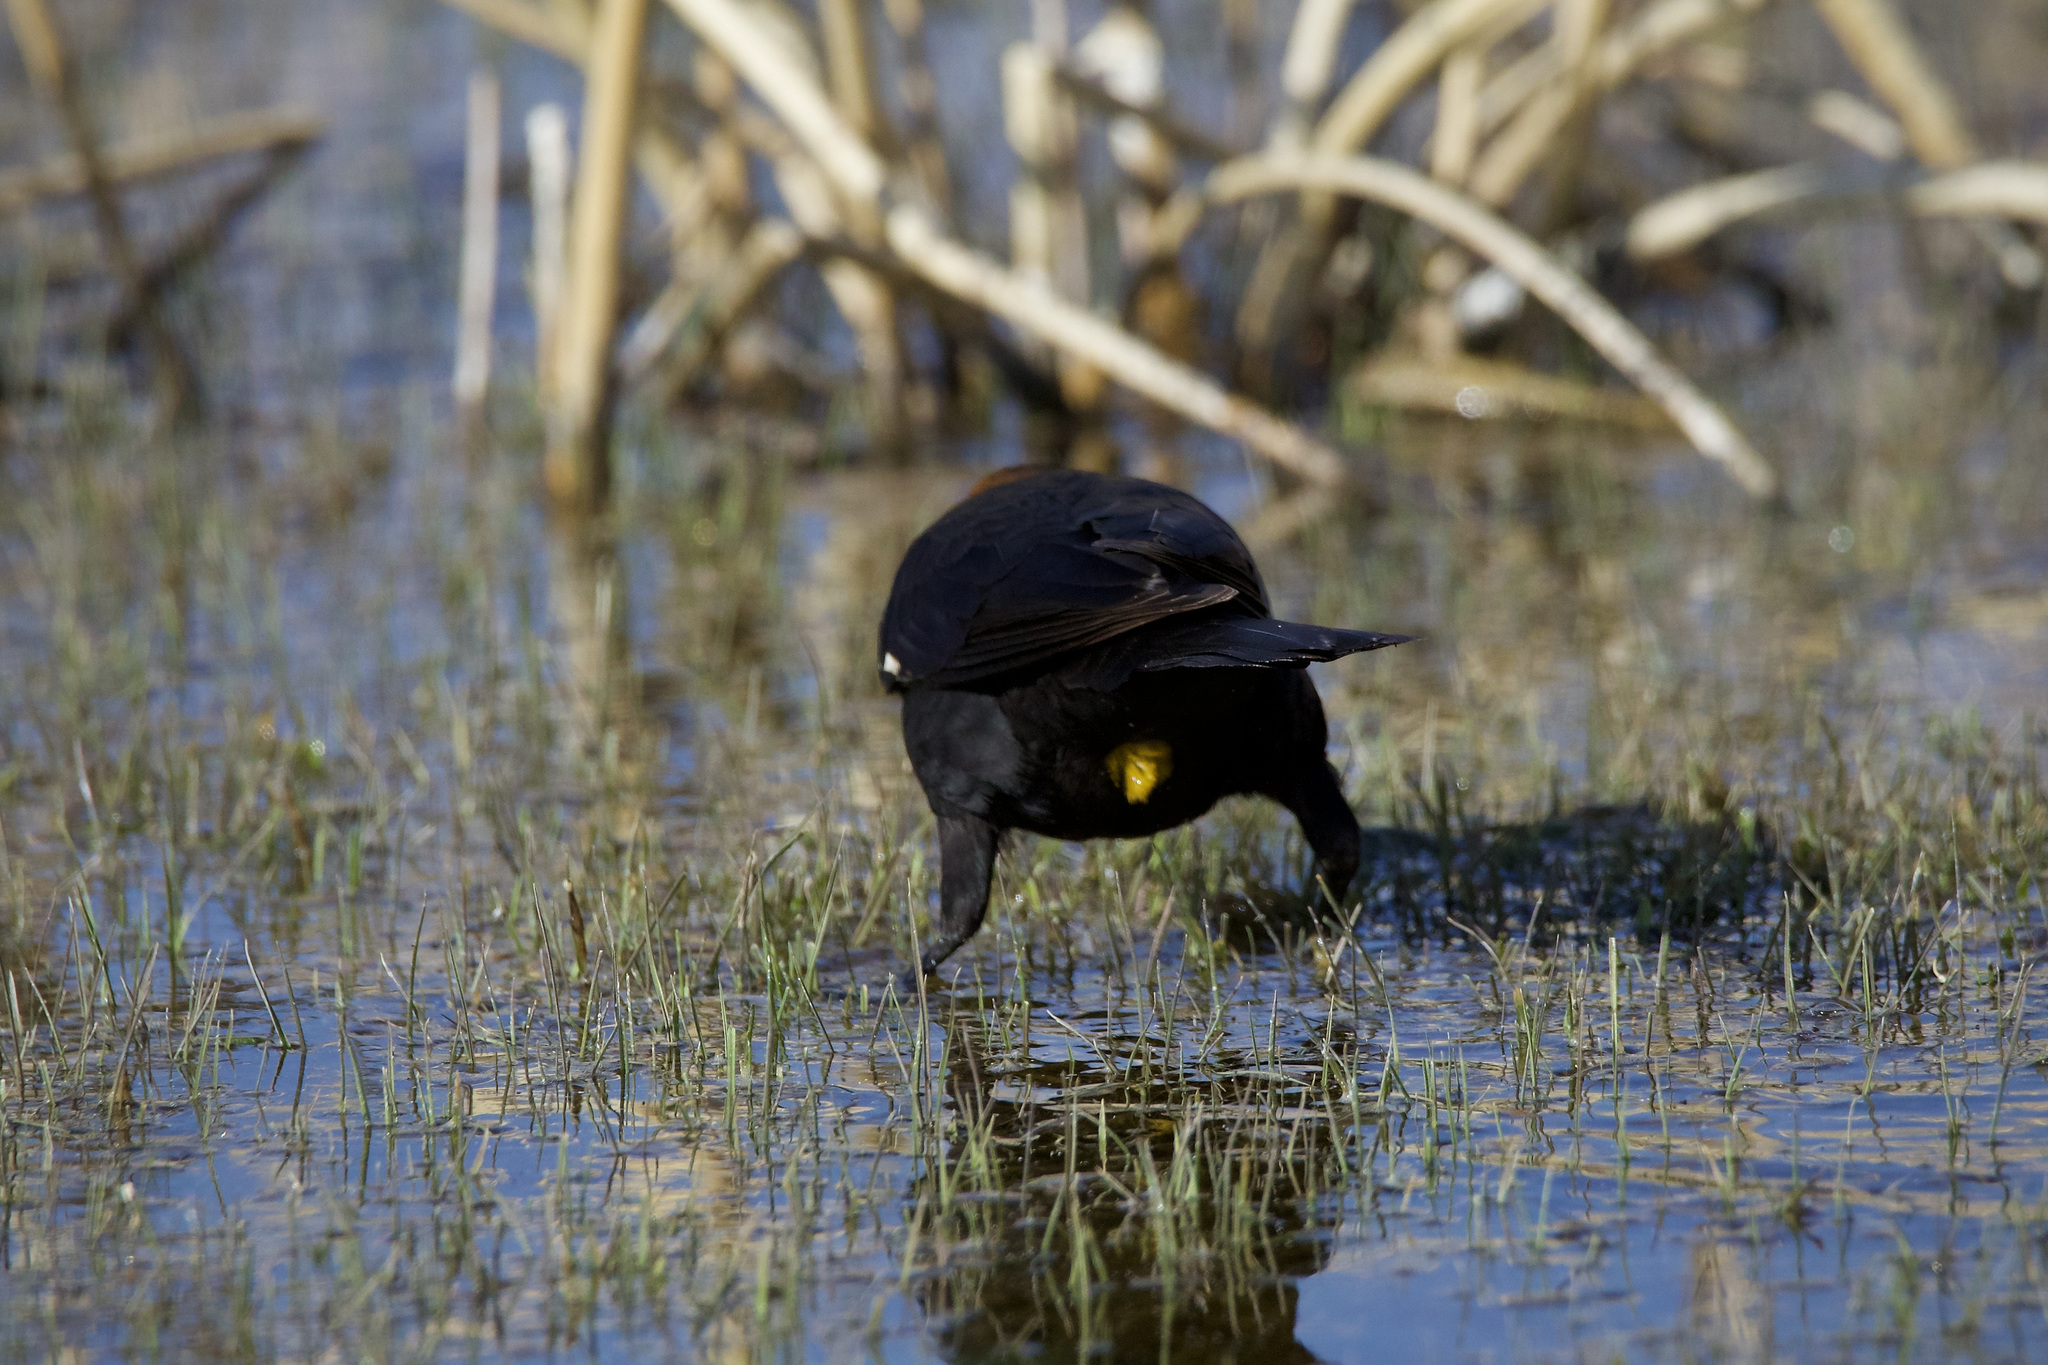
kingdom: Animalia
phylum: Chordata
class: Aves
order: Passeriformes
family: Icteridae
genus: Xanthocephalus
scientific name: Xanthocephalus xanthocephalus
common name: Yellow-headed blackbird
